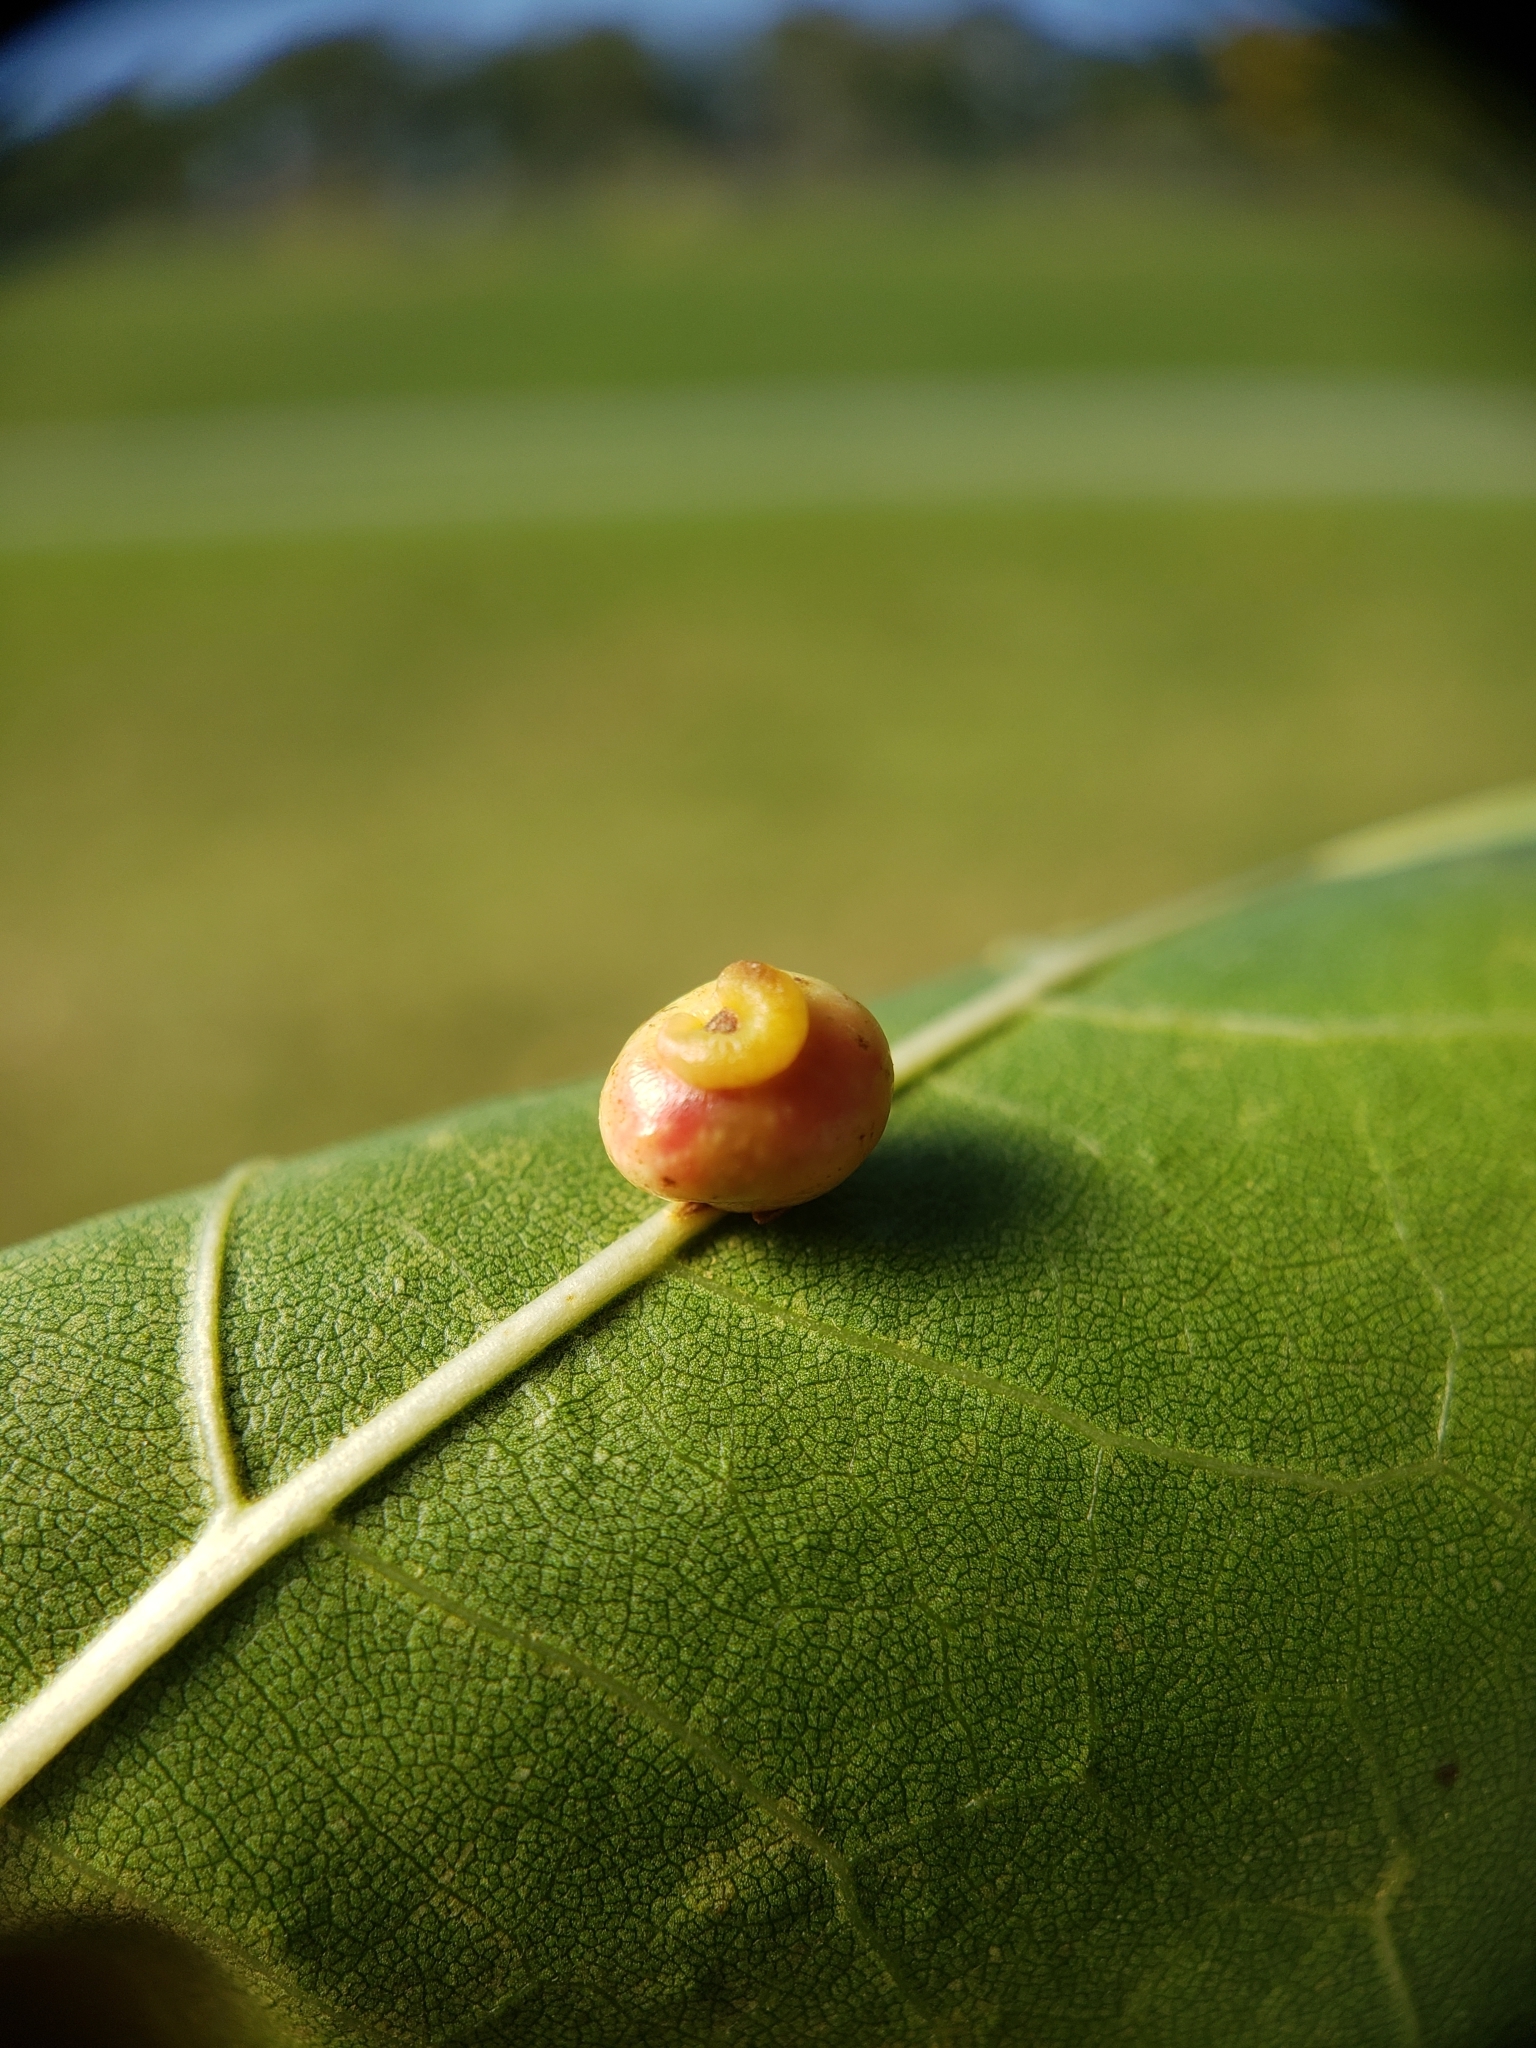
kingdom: Animalia
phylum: Arthropoda
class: Insecta
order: Hymenoptera
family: Cynipidae
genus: Kokkocynips
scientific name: Kokkocynips rileyi
